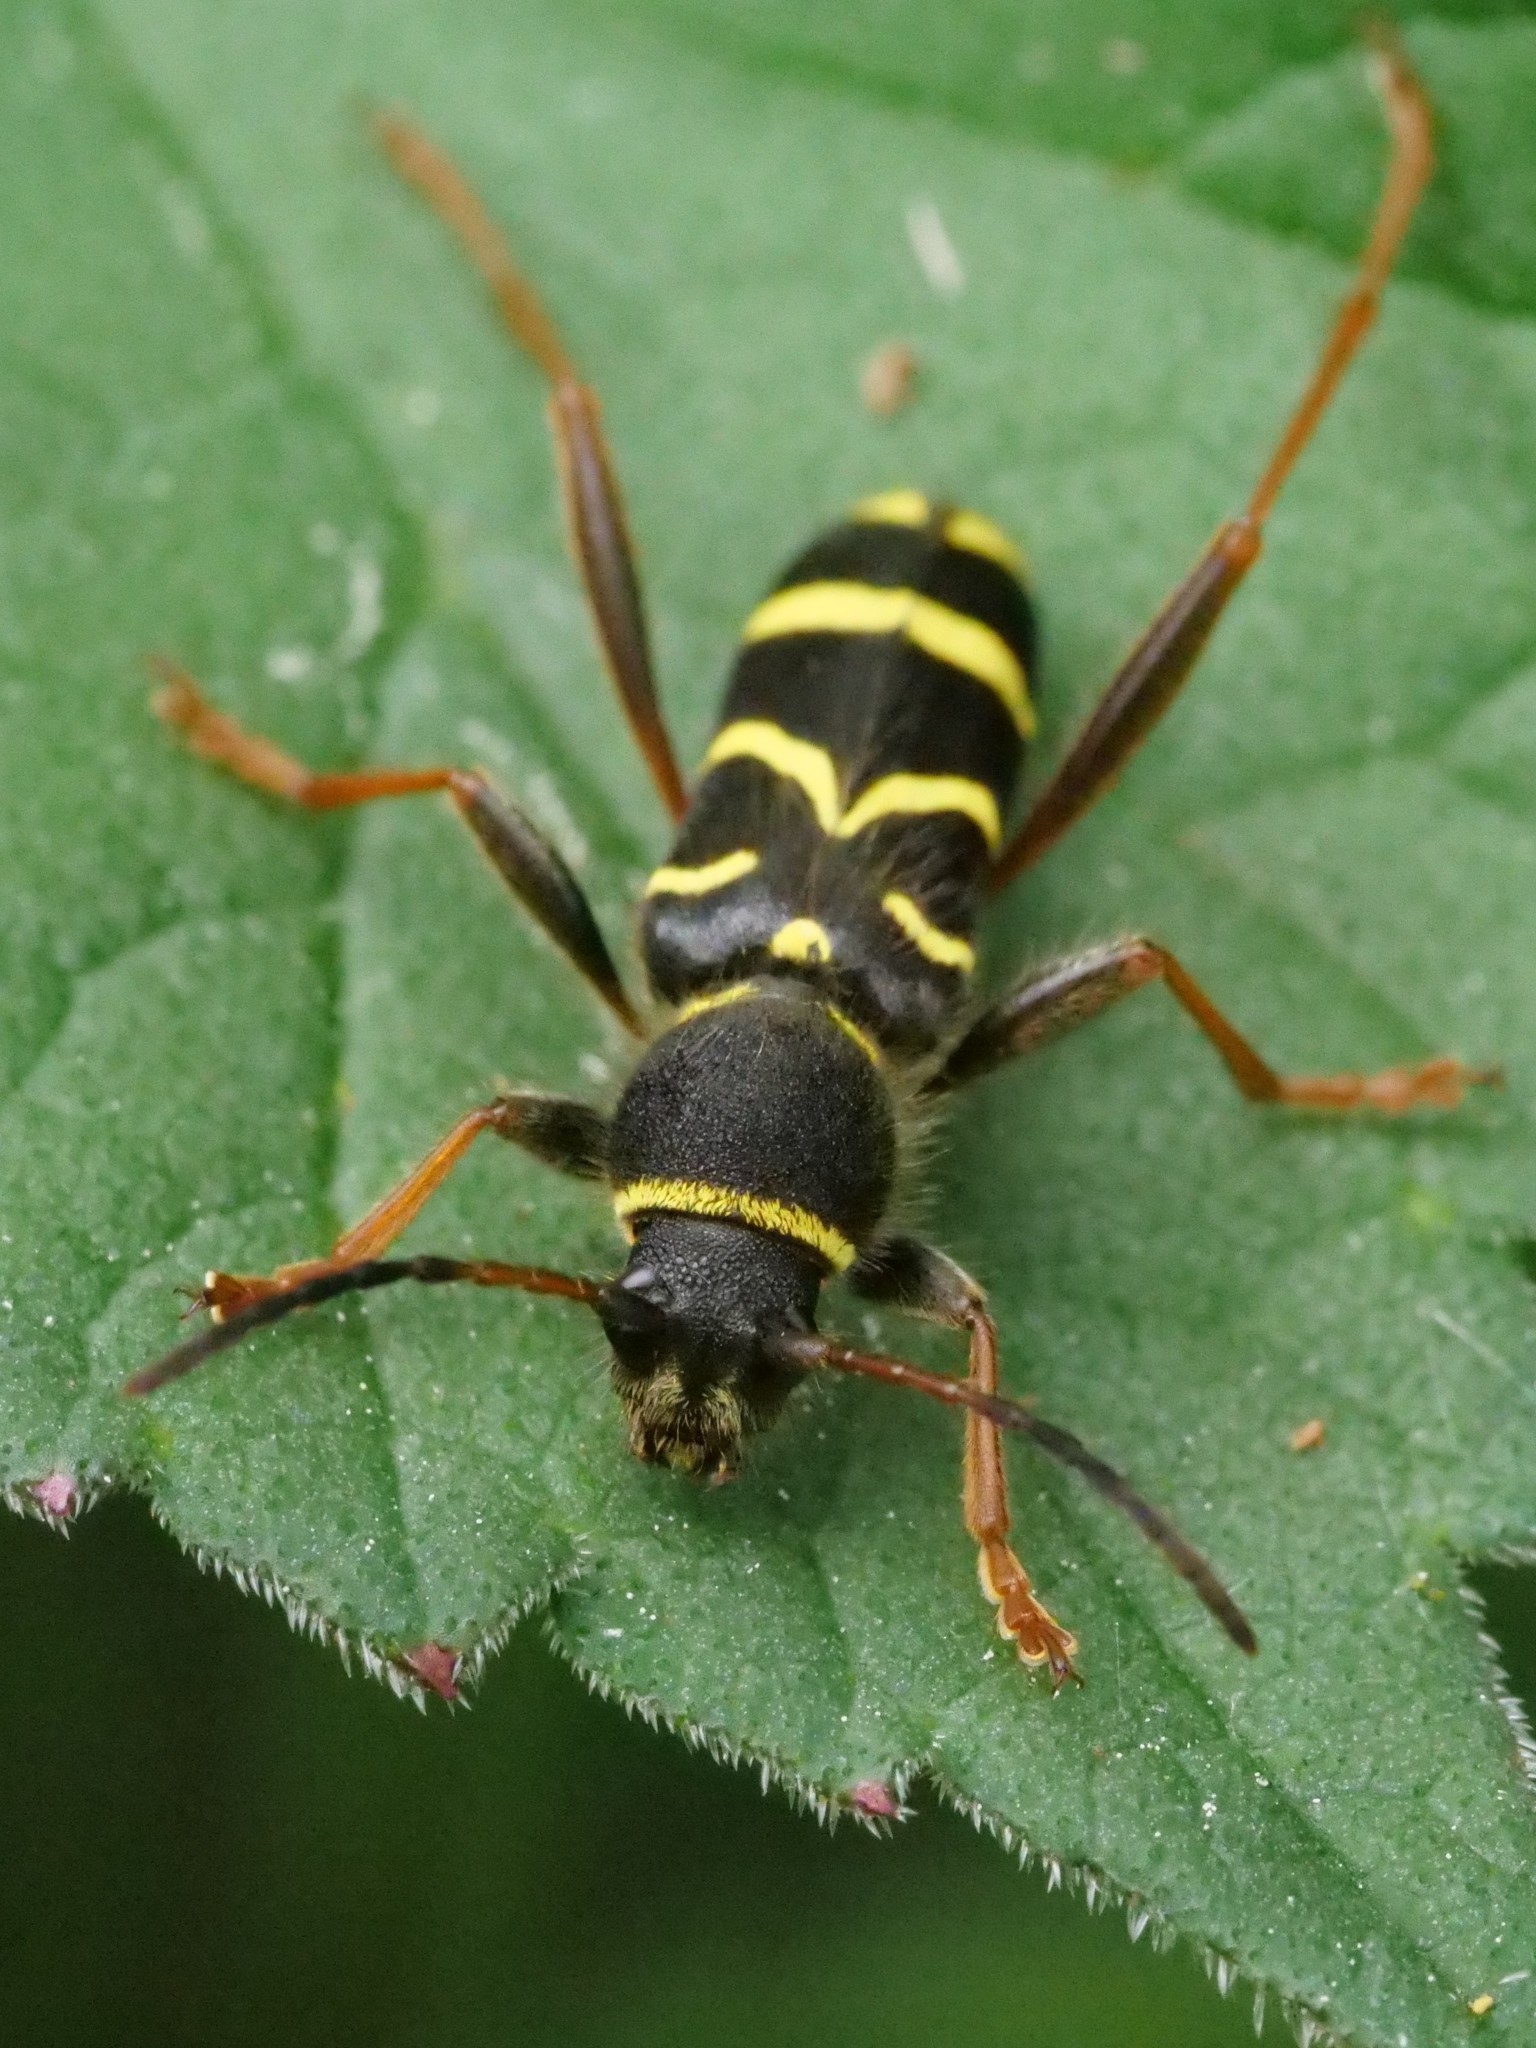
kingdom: Animalia
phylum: Arthropoda
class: Insecta
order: Coleoptera
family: Cerambycidae
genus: Clytus
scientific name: Clytus arietis
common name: Wasp beetle
